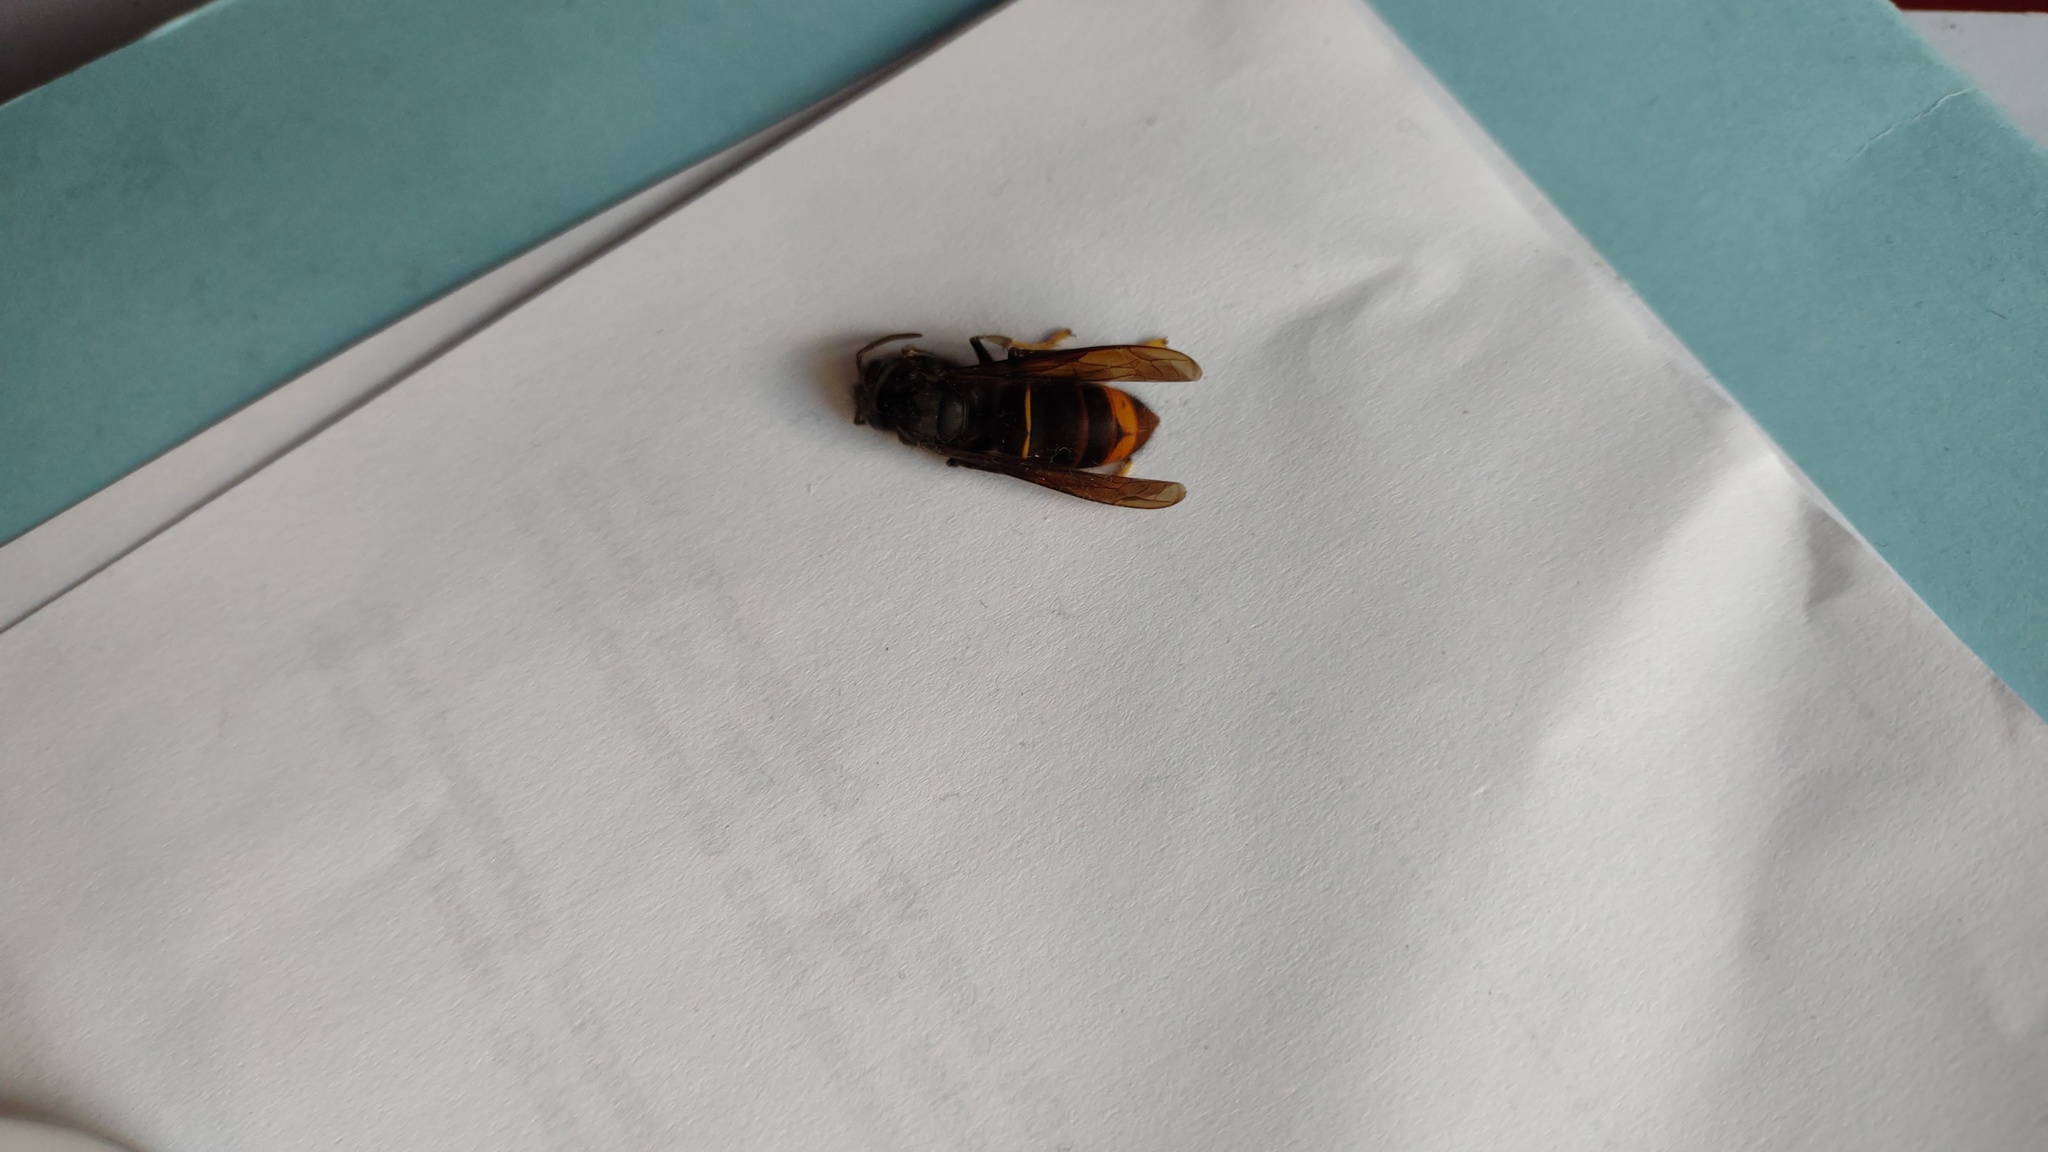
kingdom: Animalia
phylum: Arthropoda
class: Insecta
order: Hymenoptera
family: Vespidae
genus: Vespa
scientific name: Vespa velutina
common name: Asian hornet
